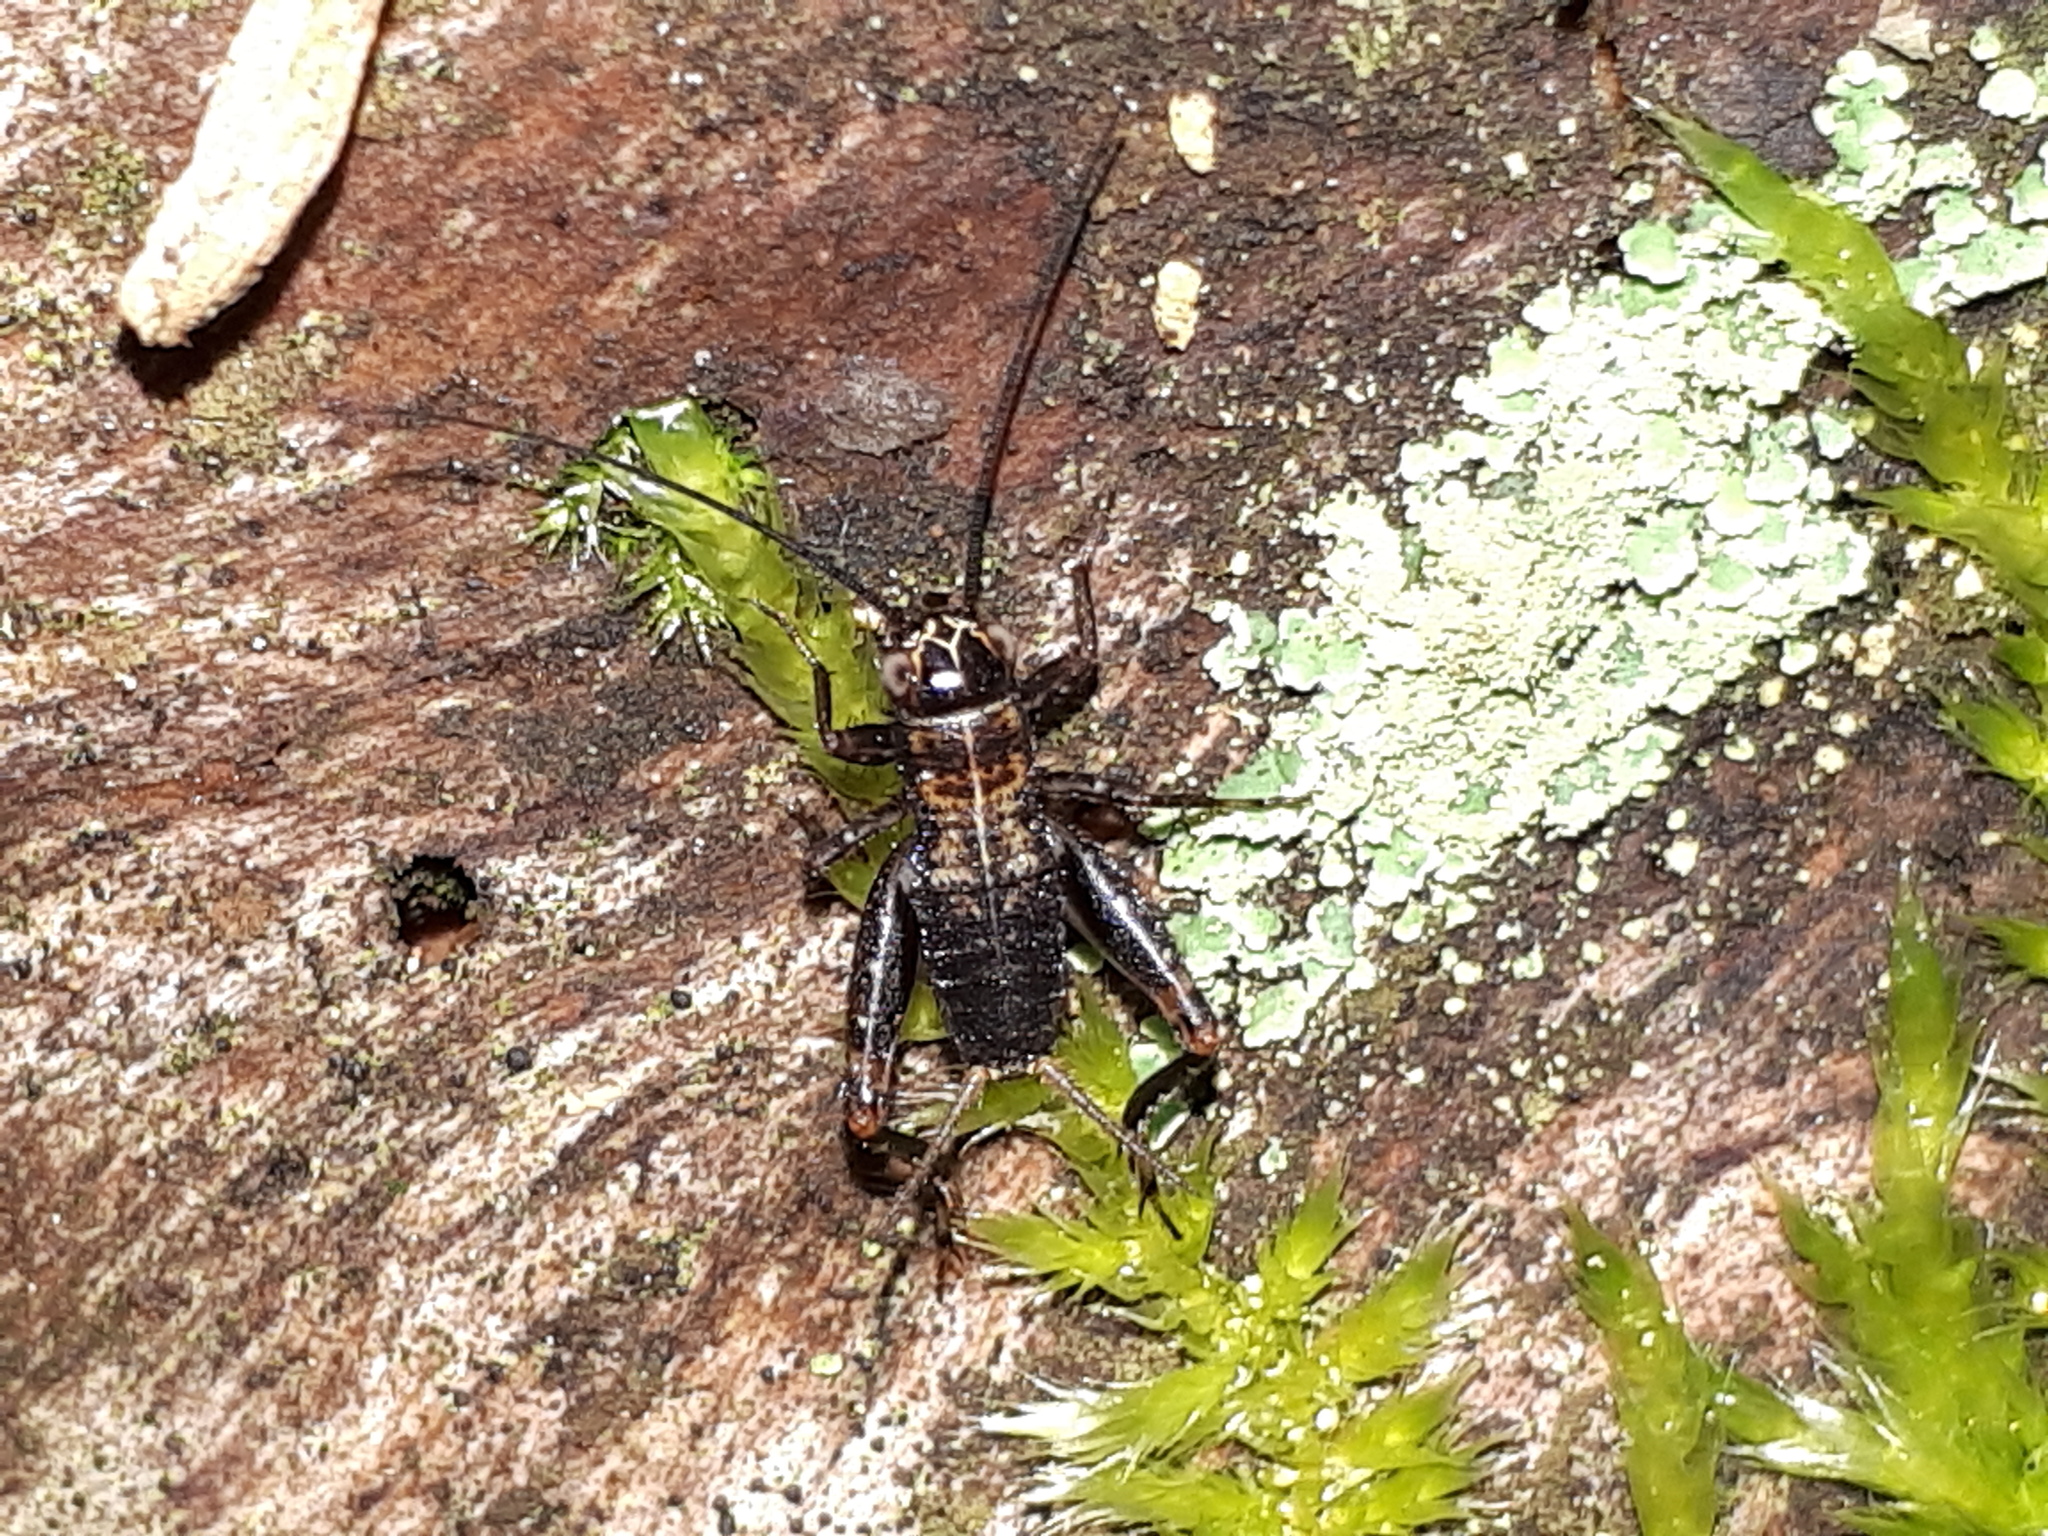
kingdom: Animalia
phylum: Arthropoda
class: Insecta
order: Orthoptera
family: Trigonidiidae
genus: Nemobius
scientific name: Nemobius sylvestris
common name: Wood-cricket
